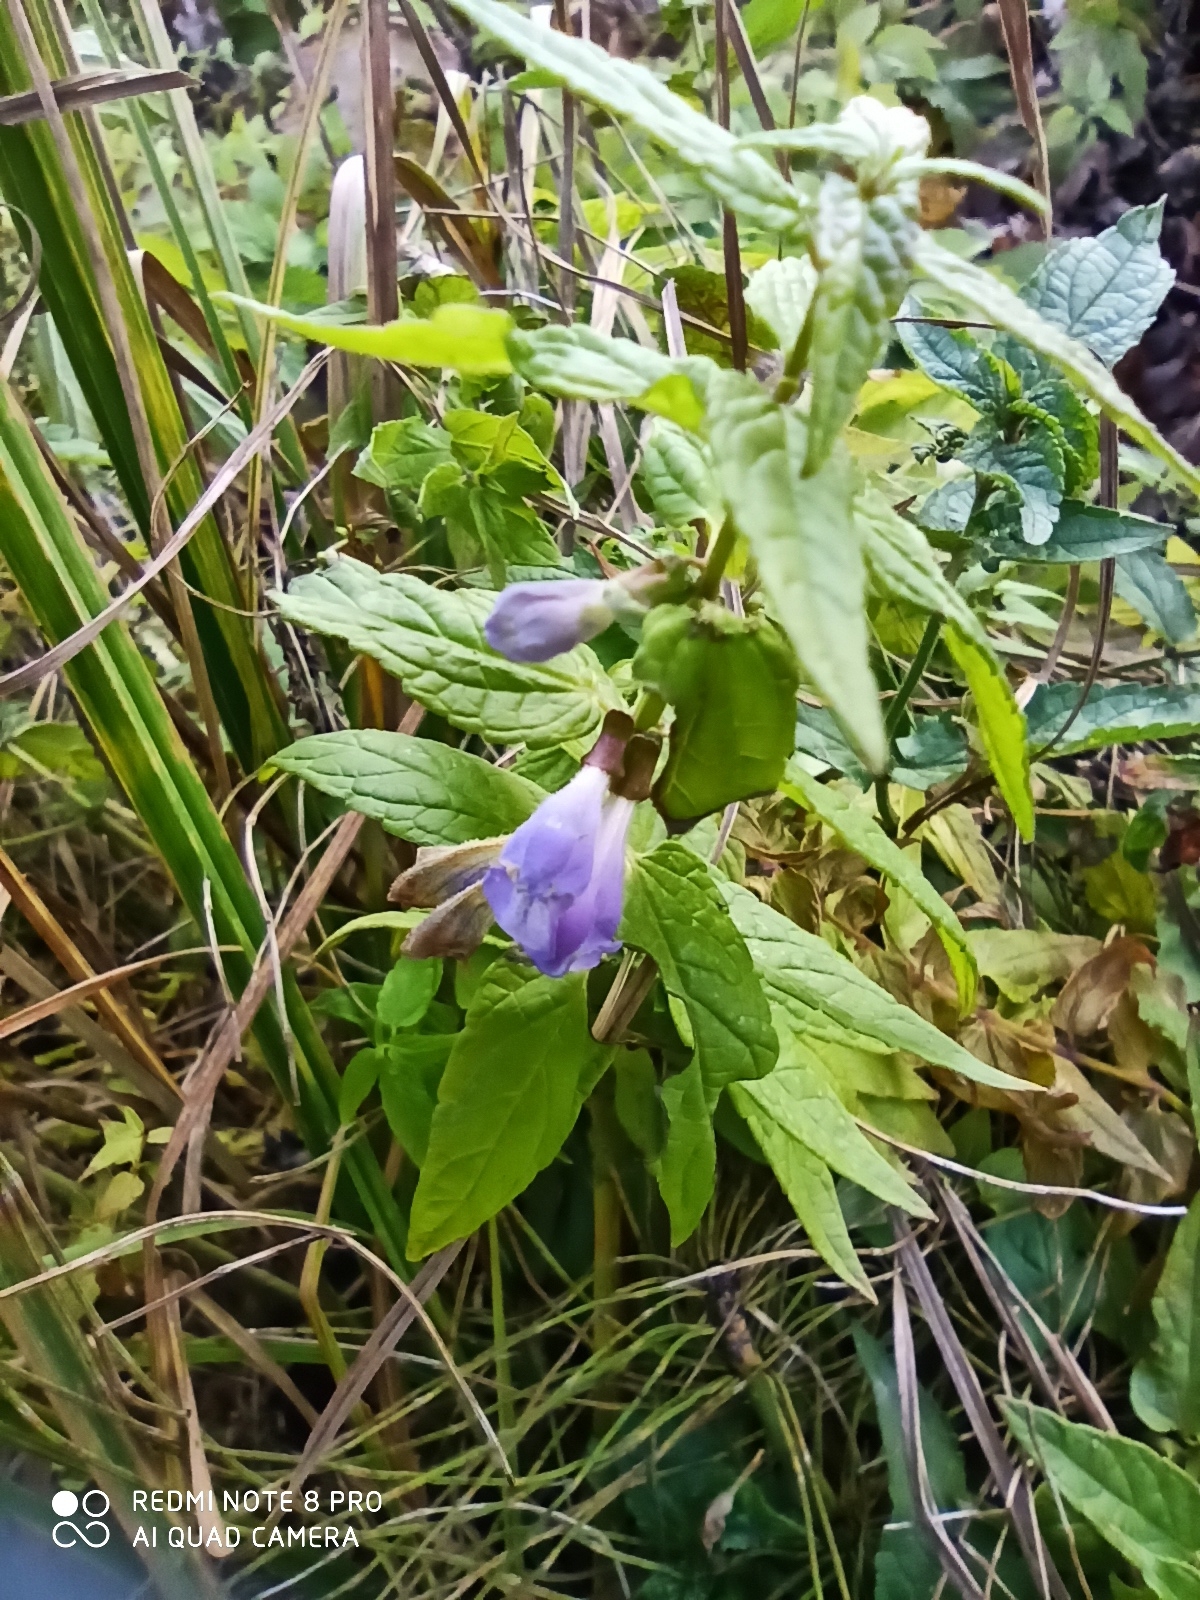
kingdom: Plantae
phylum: Tracheophyta
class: Magnoliopsida
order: Lamiales
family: Lamiaceae
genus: Scutellaria
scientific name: Scutellaria galericulata
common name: Skullcap
